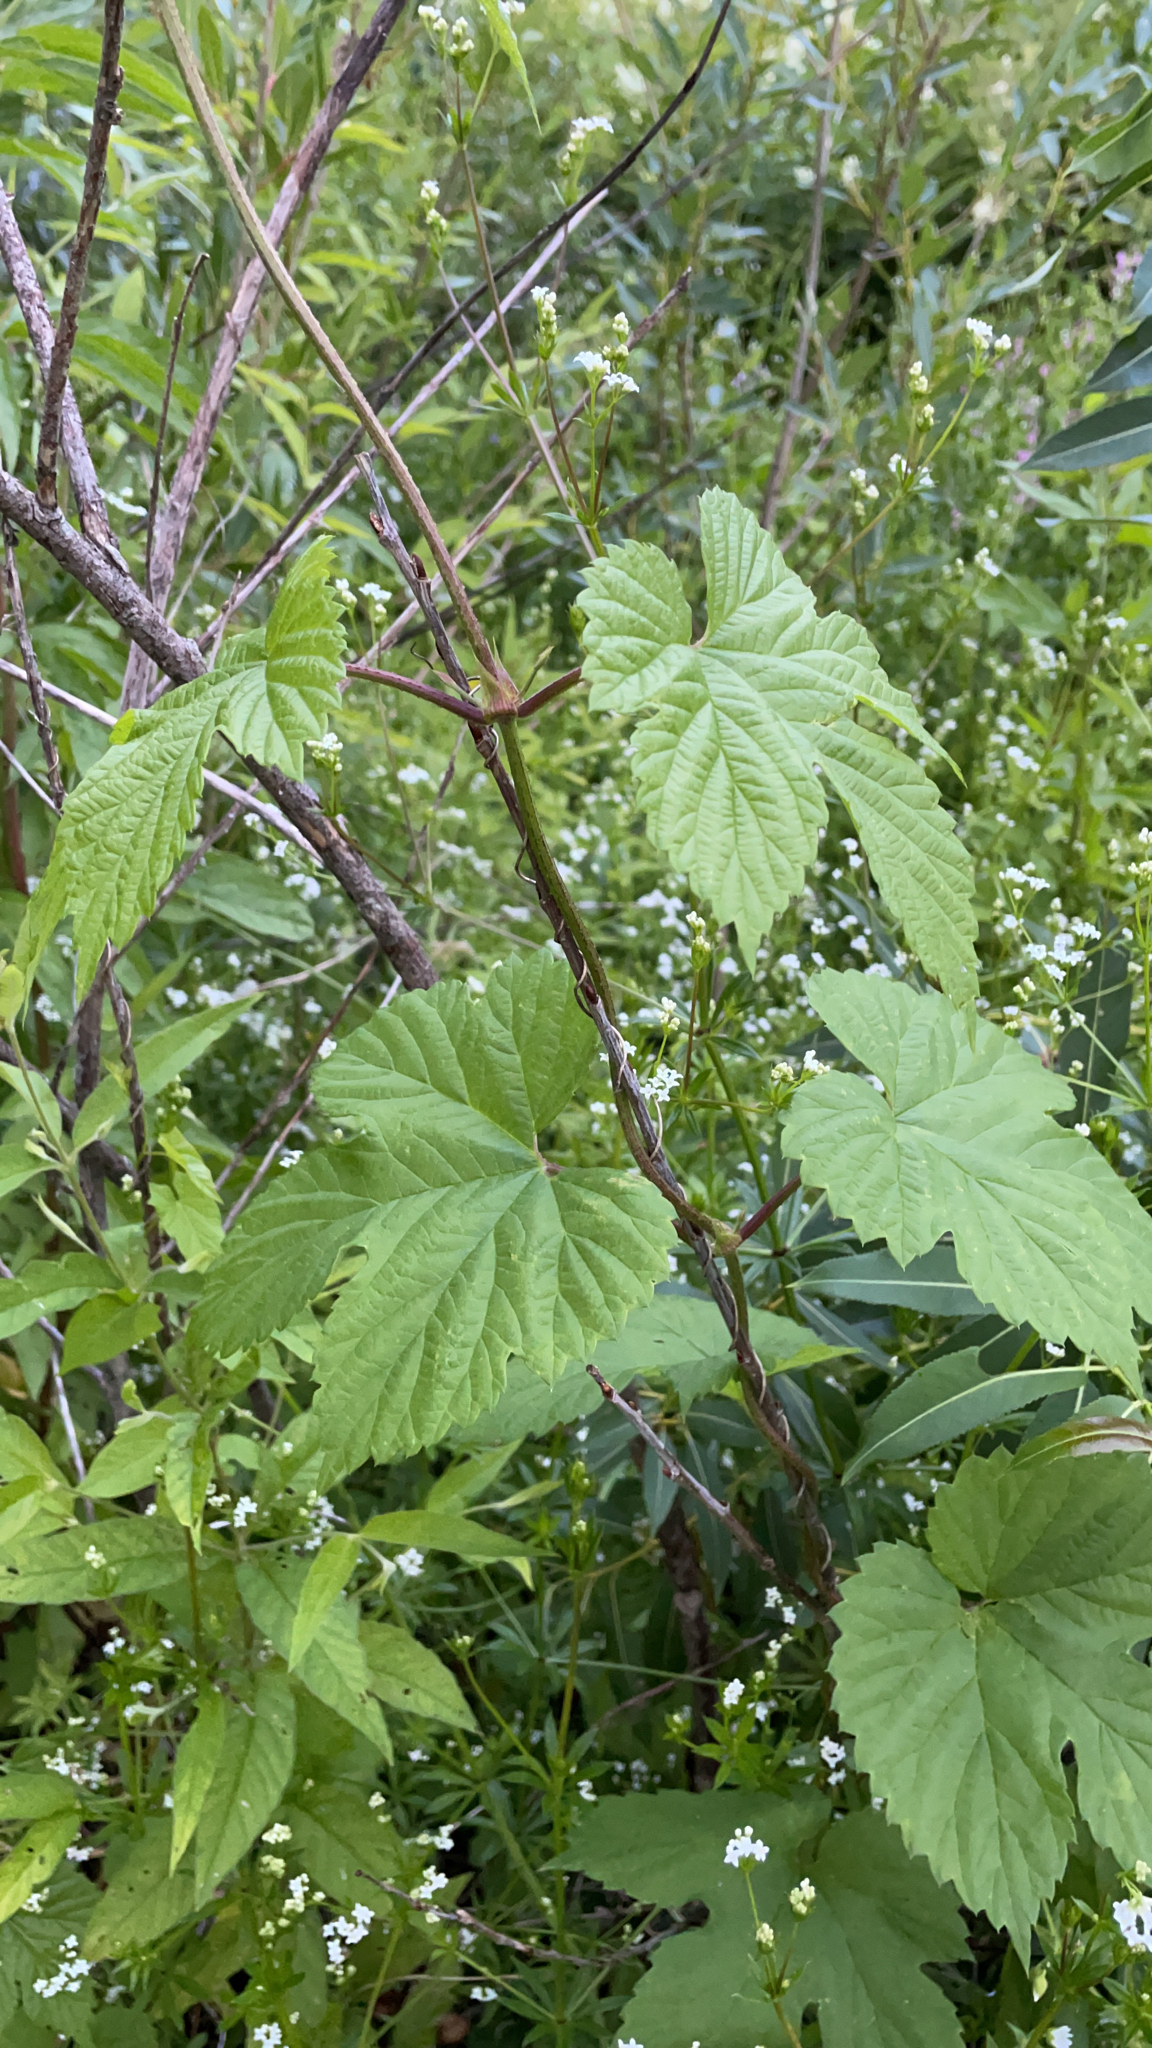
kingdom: Plantae
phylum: Tracheophyta
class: Magnoliopsida
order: Rosales
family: Cannabaceae
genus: Humulus
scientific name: Humulus lupulus
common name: Hop
